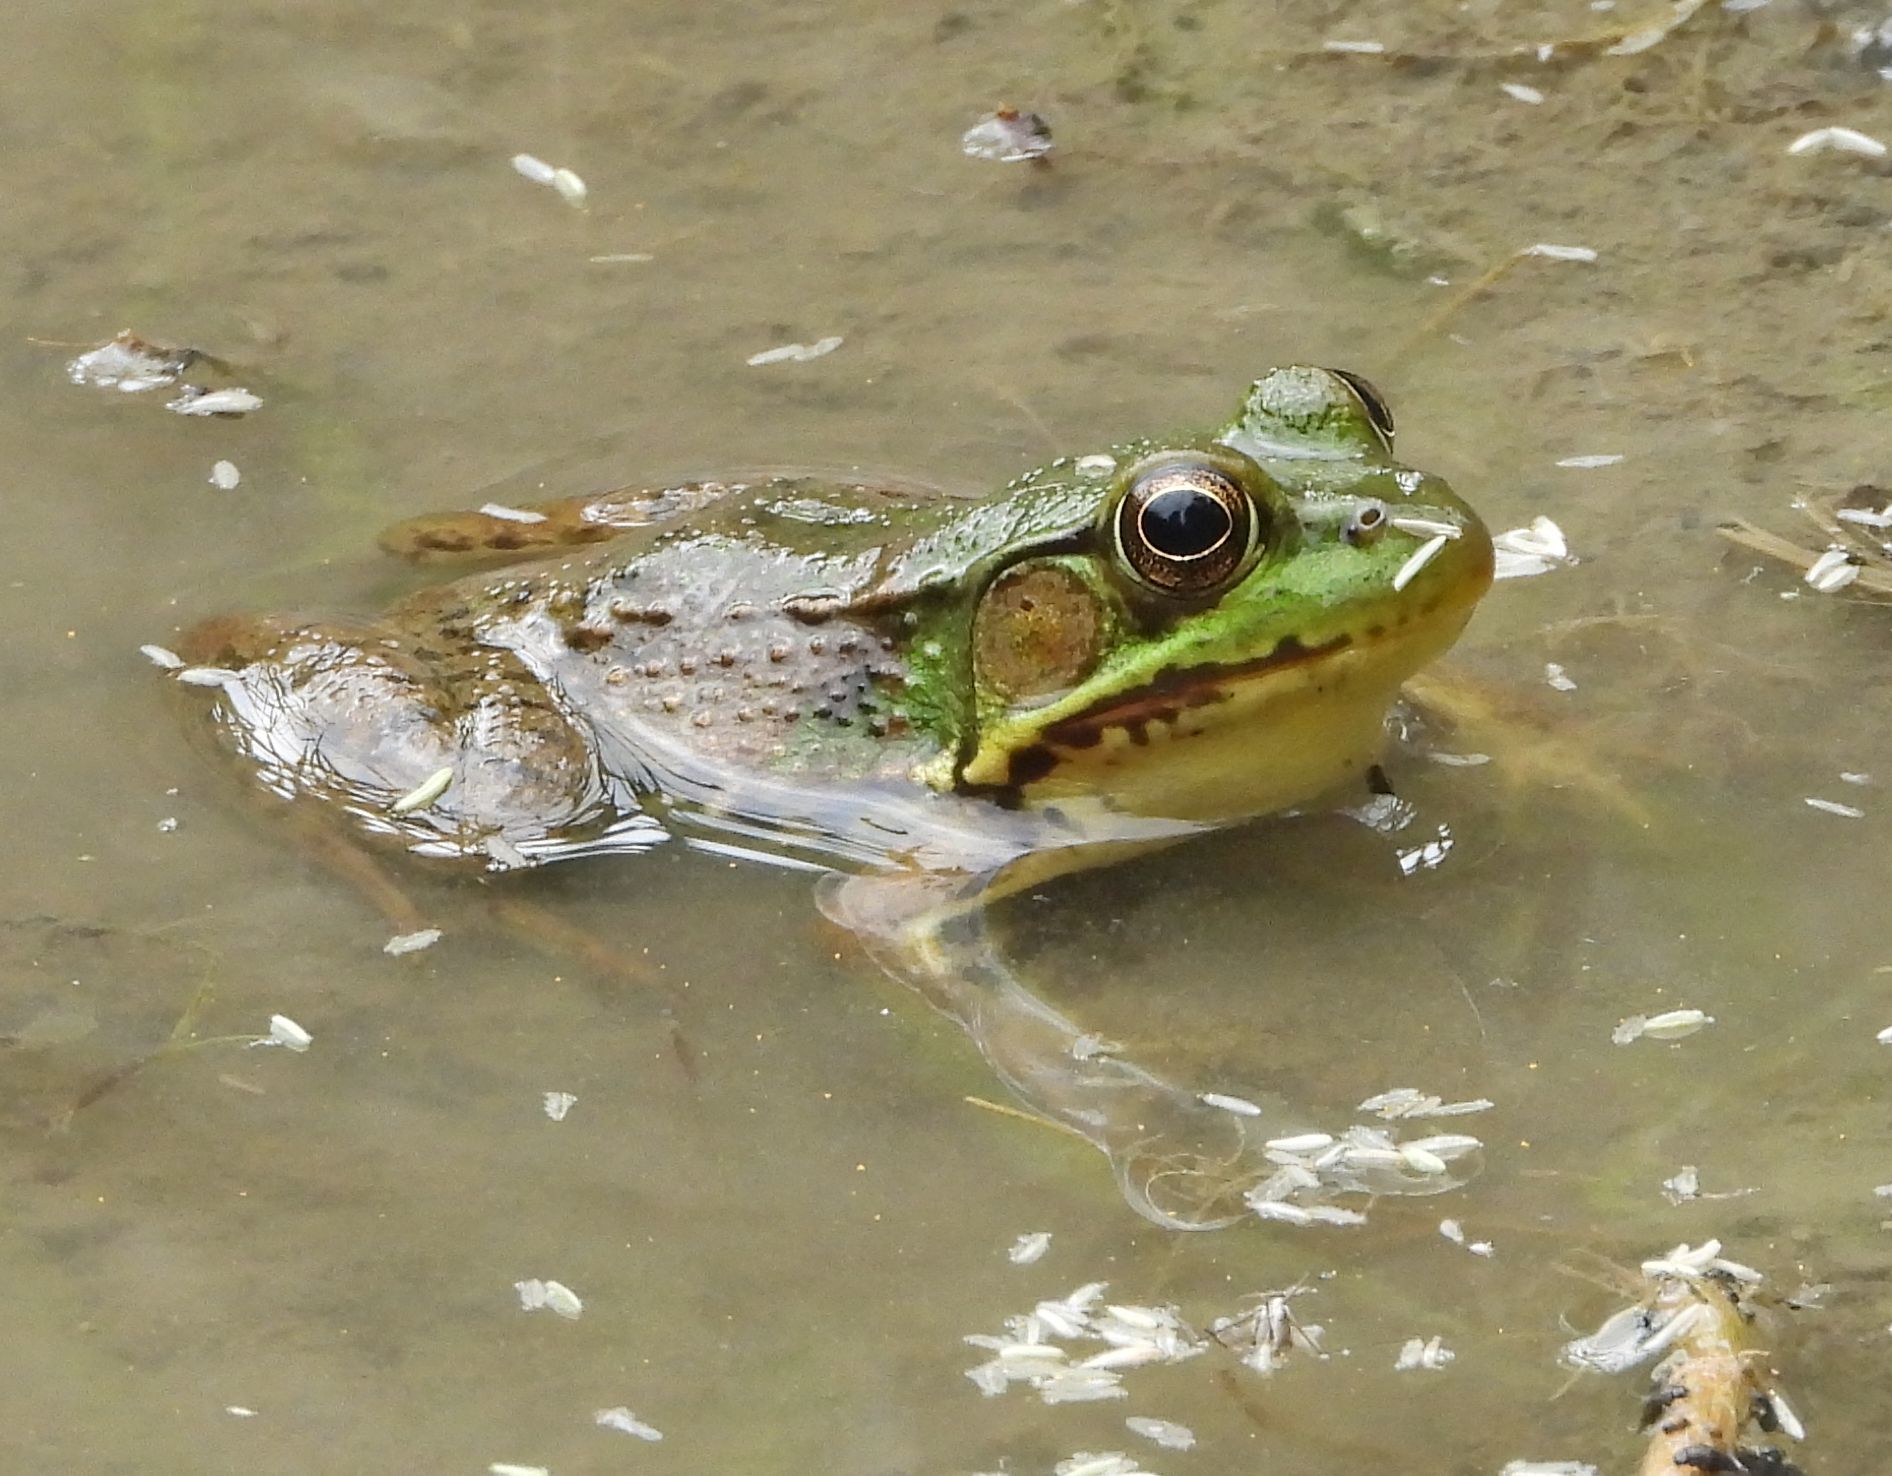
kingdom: Animalia
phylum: Chordata
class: Amphibia
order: Anura
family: Ranidae
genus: Lithobates
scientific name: Lithobates clamitans
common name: Green frog
